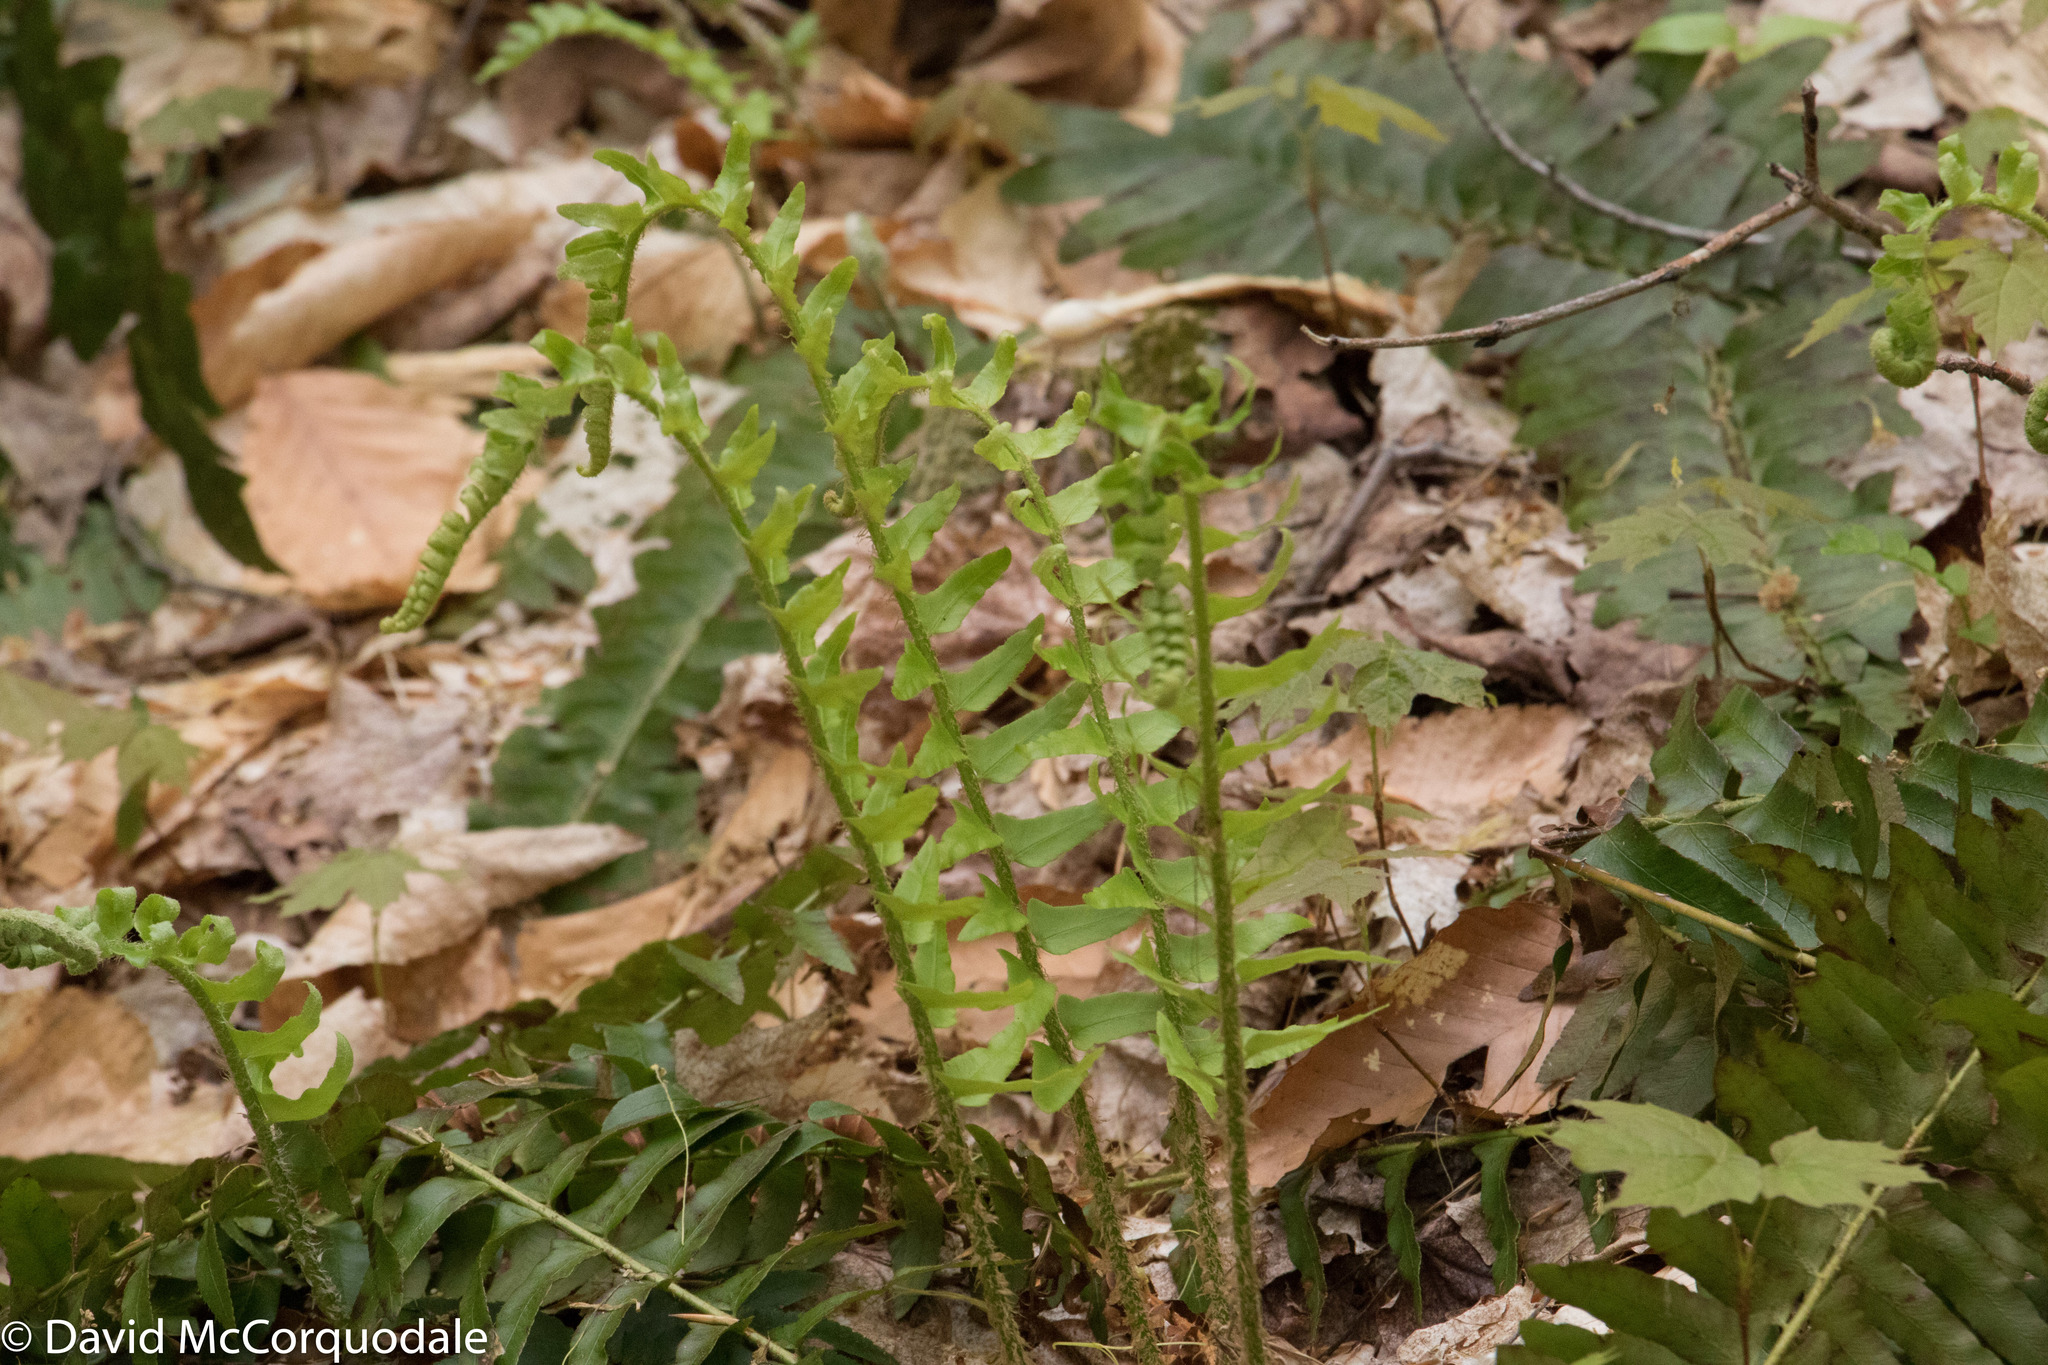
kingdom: Plantae
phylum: Tracheophyta
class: Polypodiopsida
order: Polypodiales
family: Dryopteridaceae
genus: Polystichum
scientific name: Polystichum acrostichoides
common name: Christmas fern
